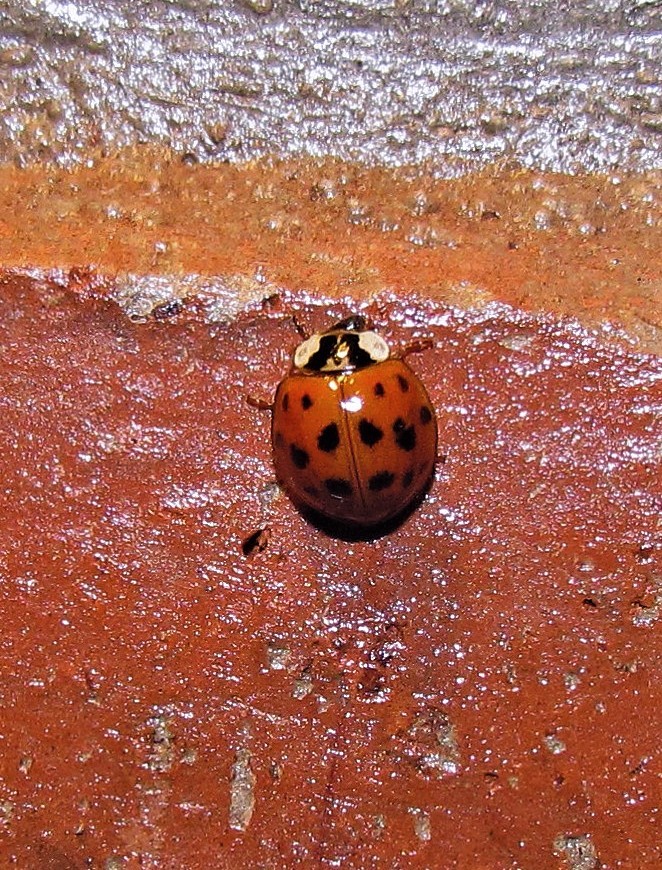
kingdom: Animalia
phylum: Arthropoda
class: Insecta
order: Coleoptera
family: Coccinellidae
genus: Harmonia
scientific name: Harmonia axyridis
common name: Harlequin ladybird
